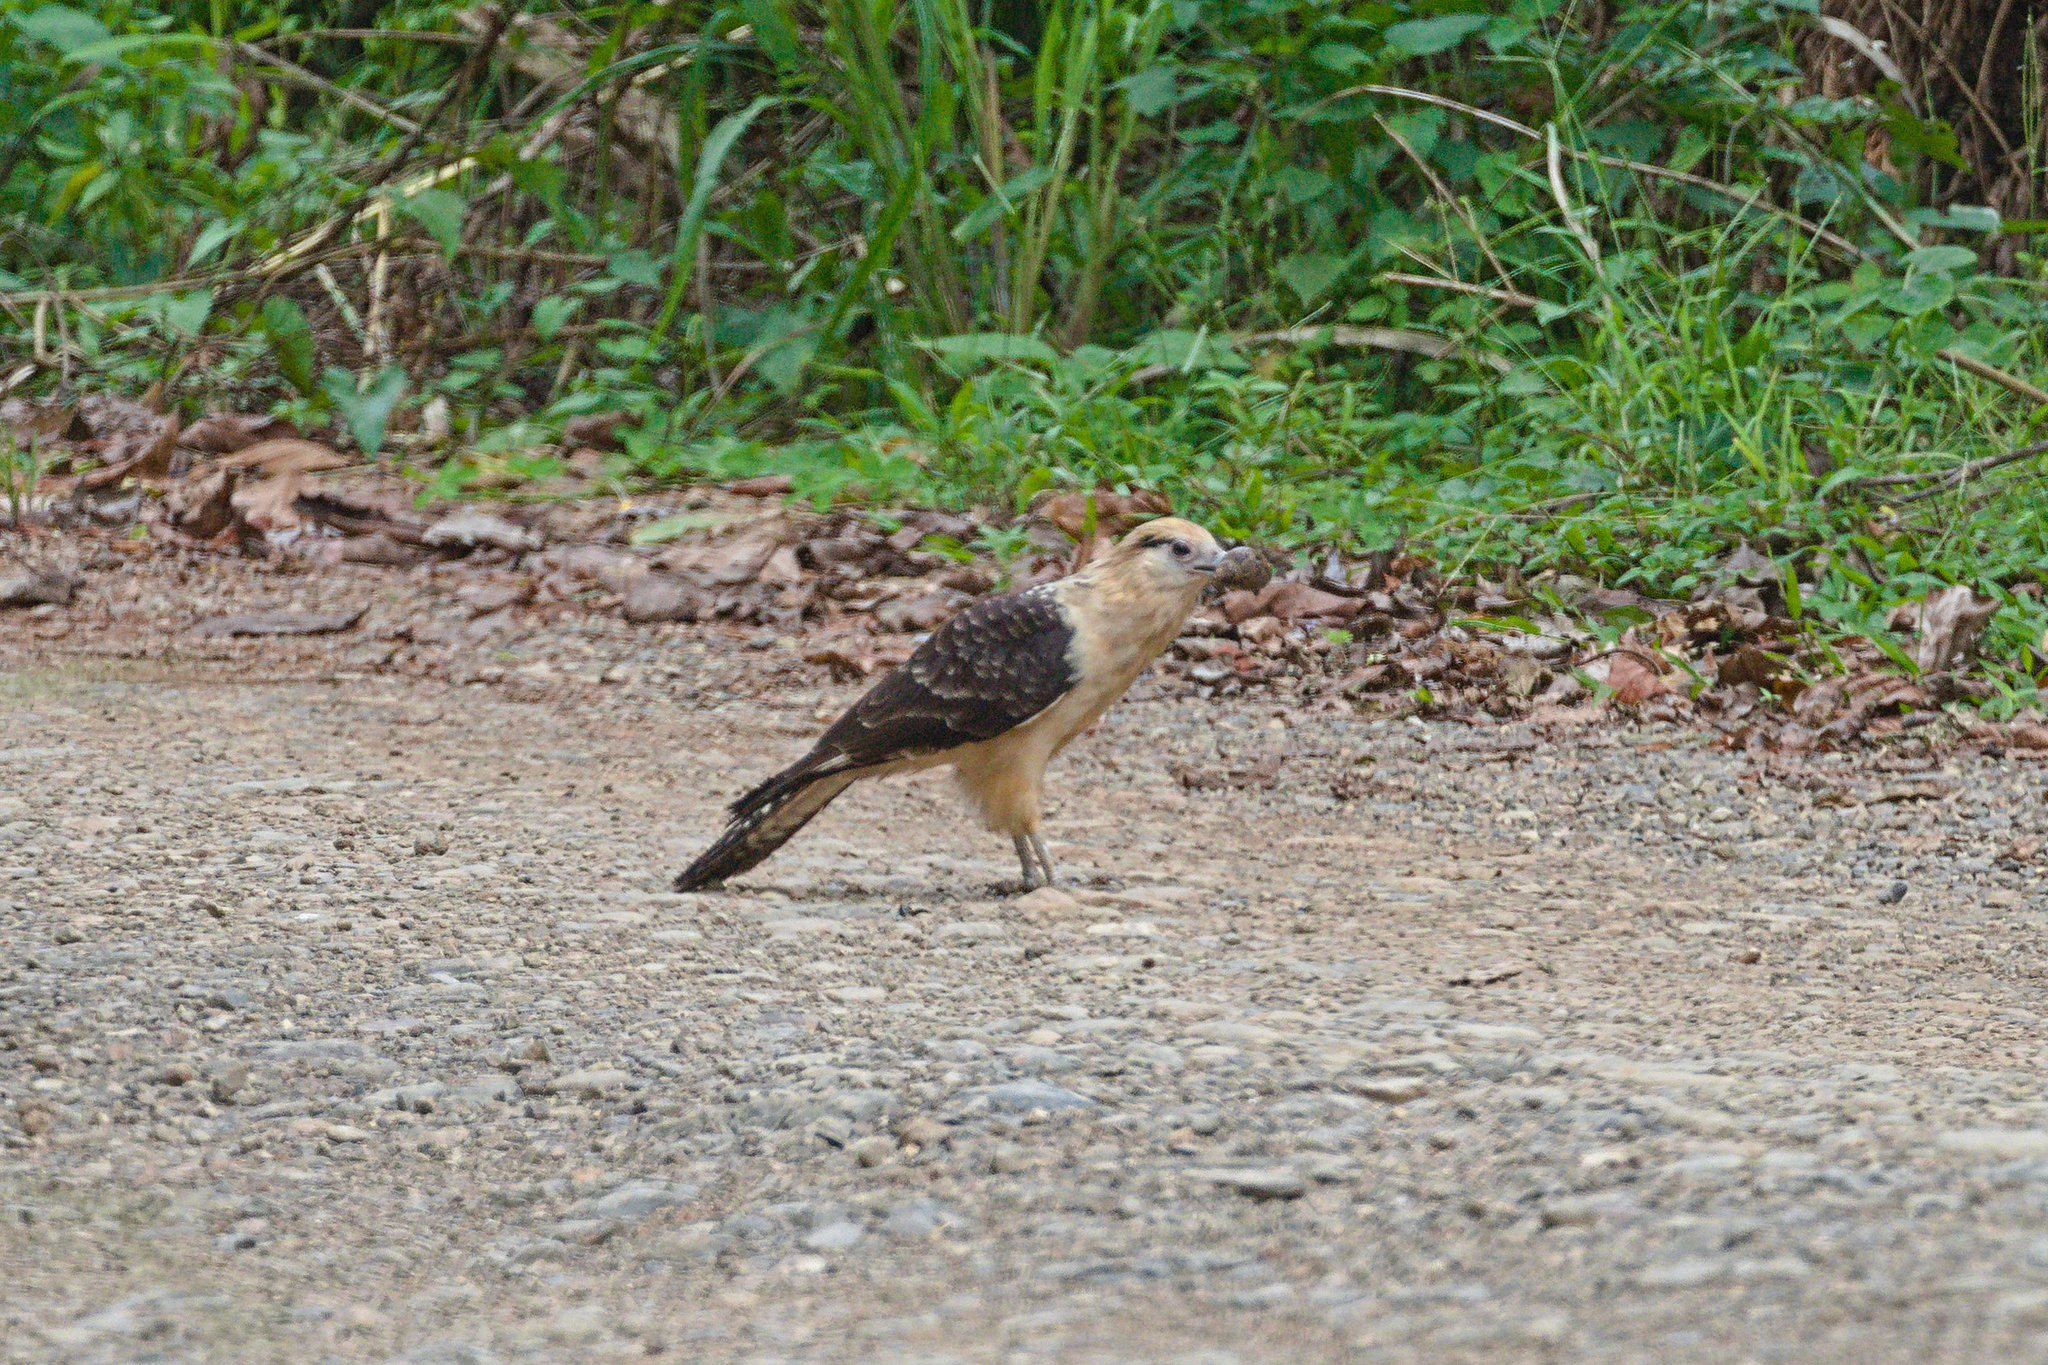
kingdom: Animalia
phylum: Chordata
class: Aves
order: Falconiformes
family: Falconidae
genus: Daptrius
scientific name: Daptrius
